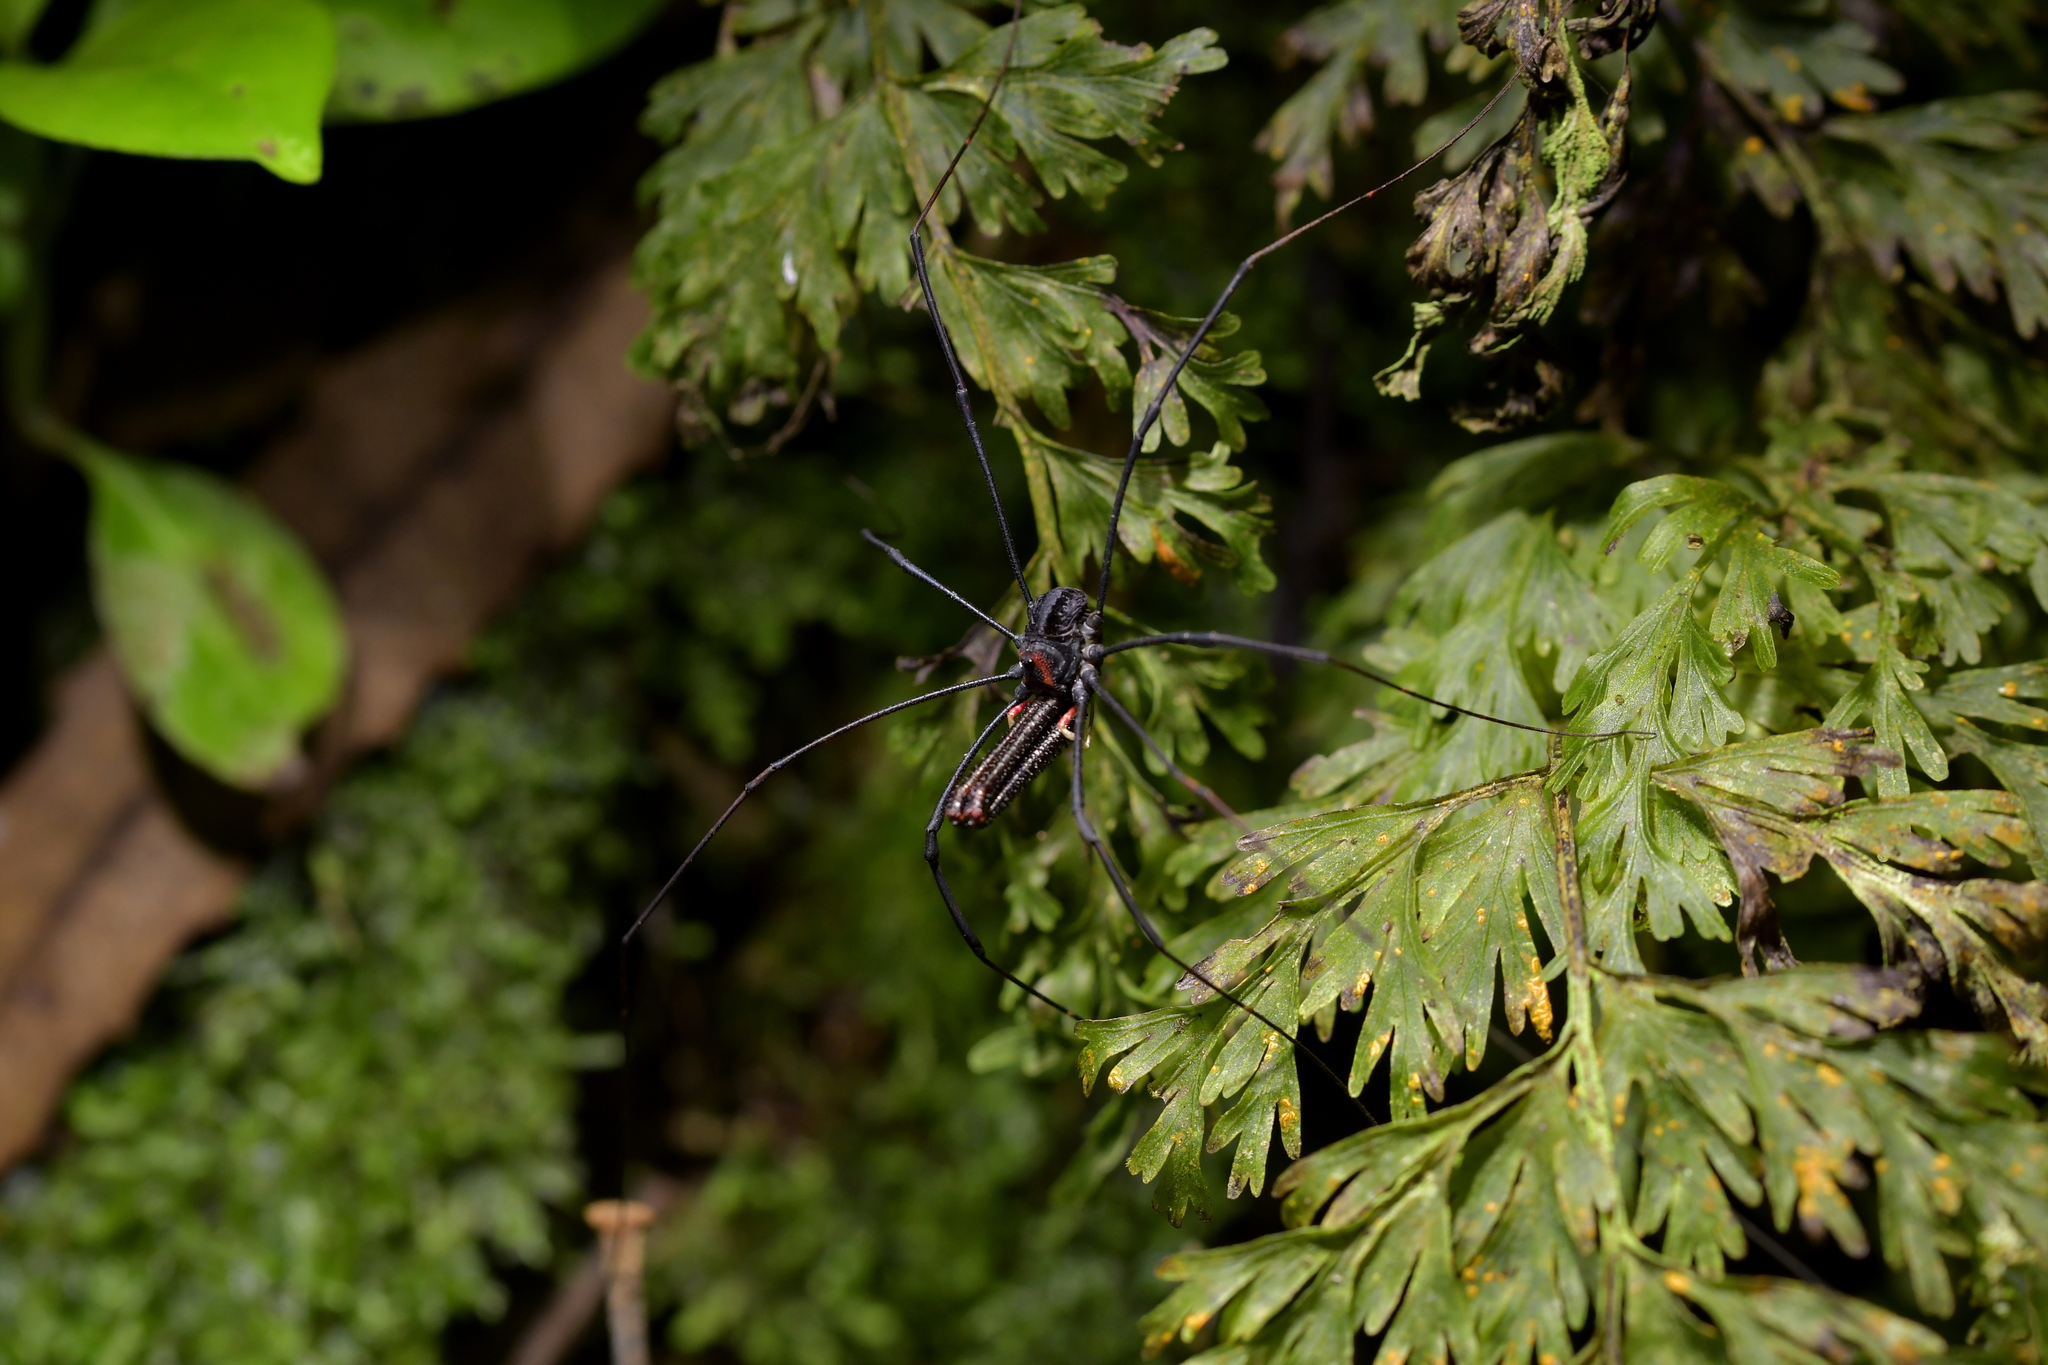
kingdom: Animalia
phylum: Arthropoda
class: Arachnida
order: Opiliones
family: Neopilionidae
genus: Forsteropsalis
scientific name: Forsteropsalis inconstans
